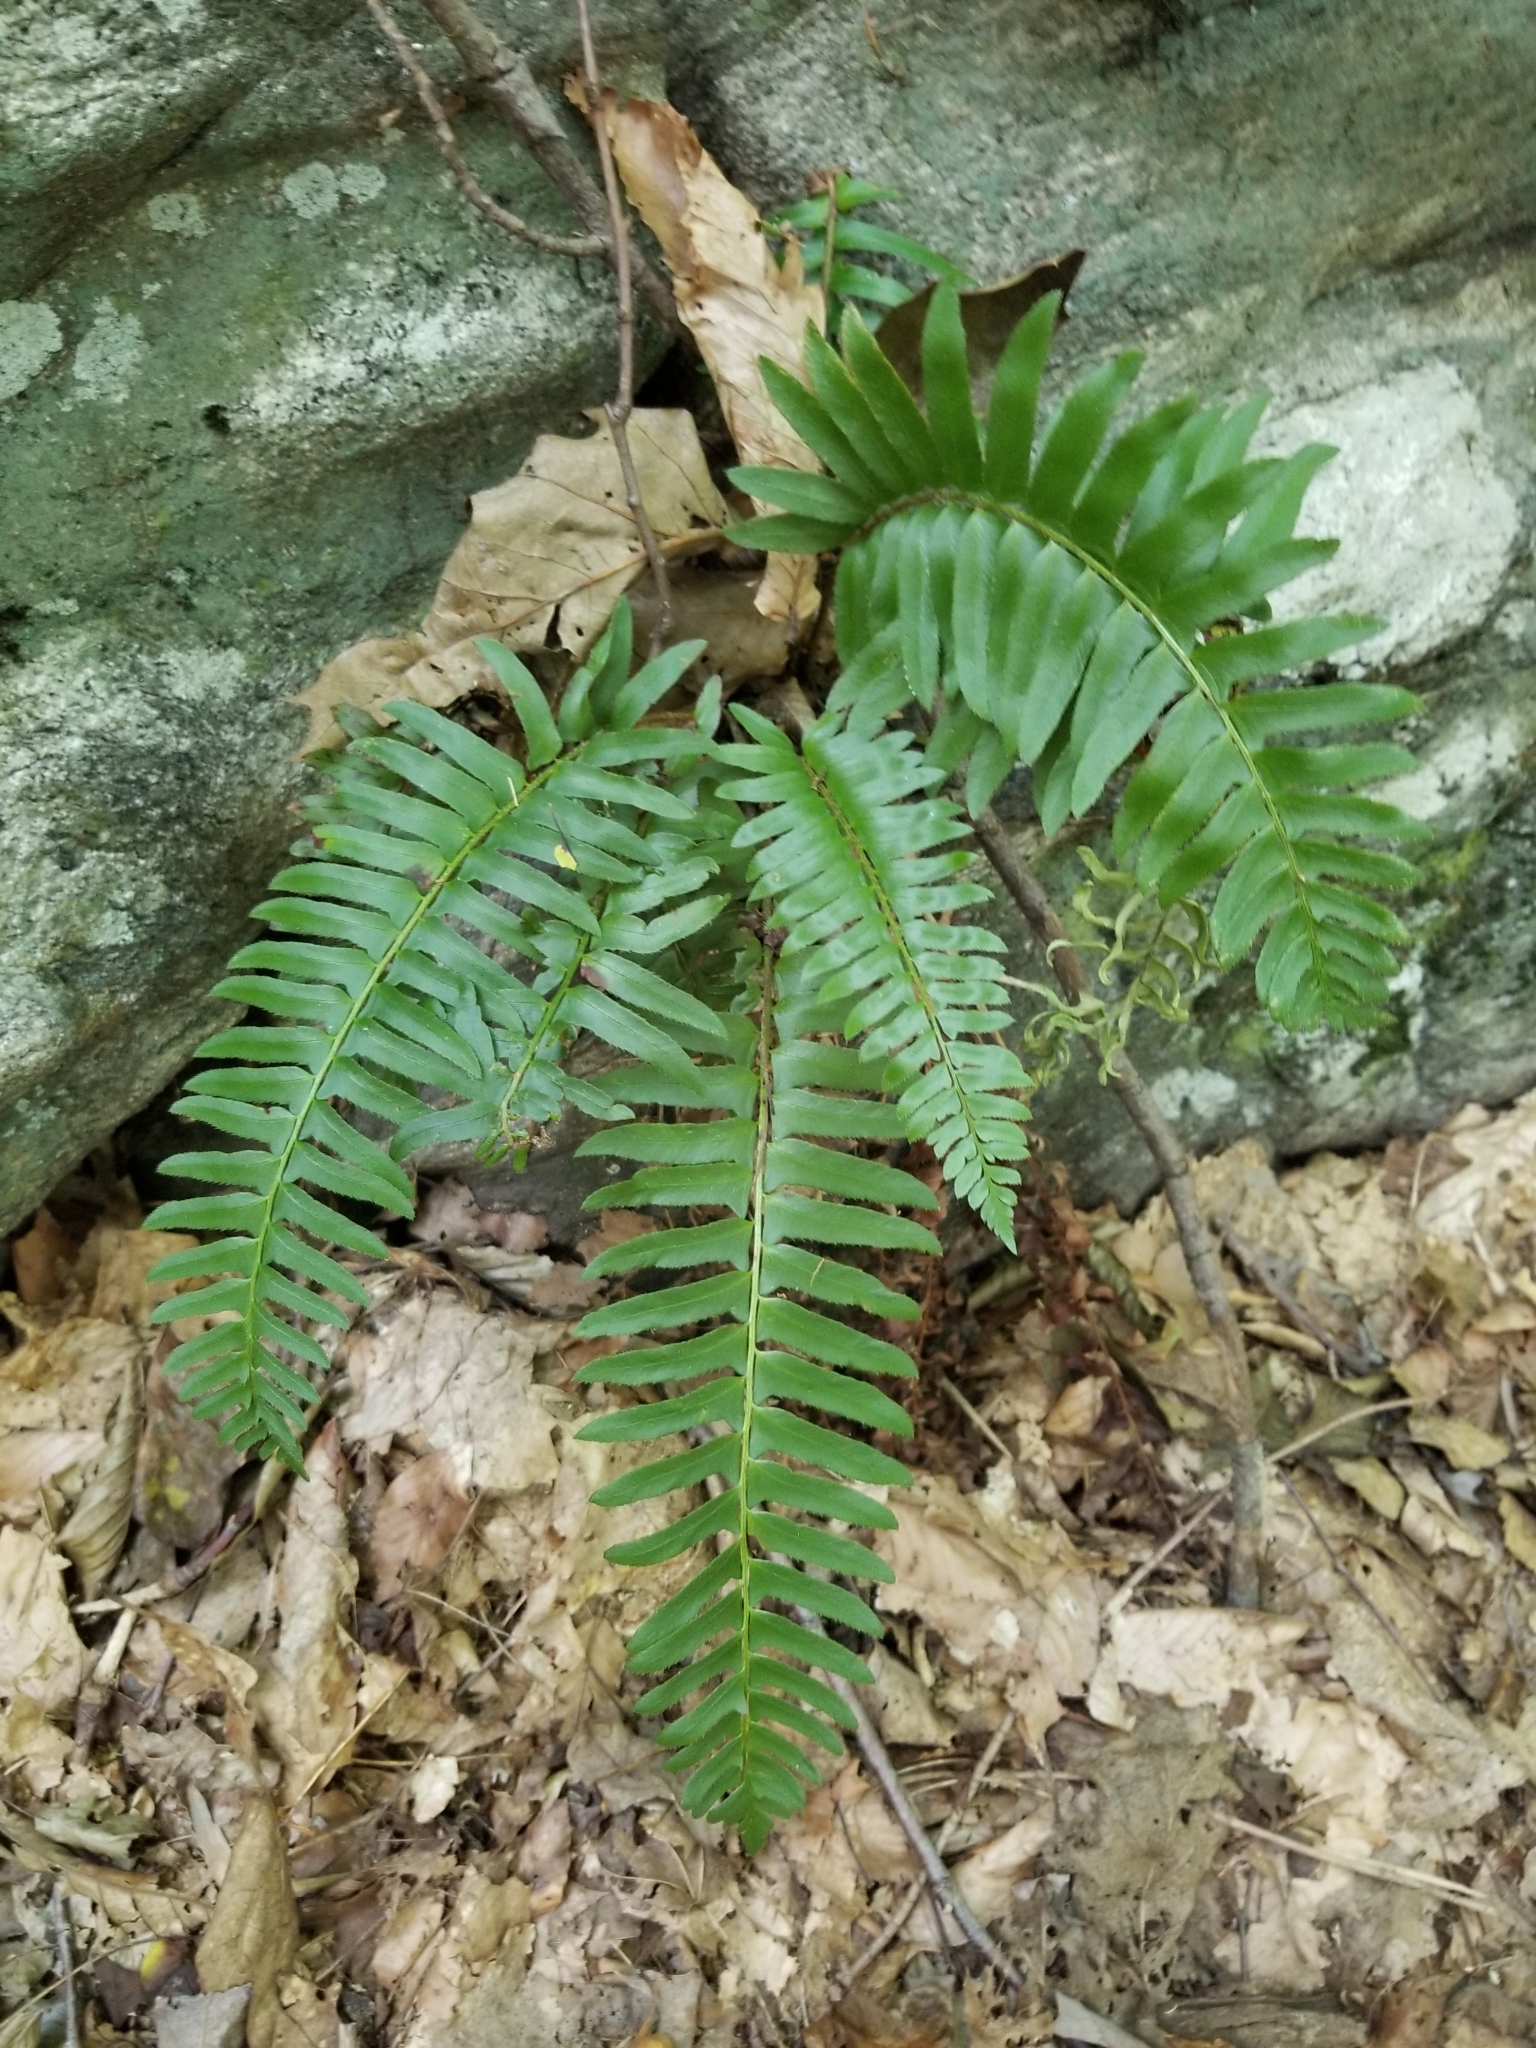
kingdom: Plantae
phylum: Tracheophyta
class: Polypodiopsida
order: Polypodiales
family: Dryopteridaceae
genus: Polystichum
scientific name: Polystichum acrostichoides
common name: Christmas fern
